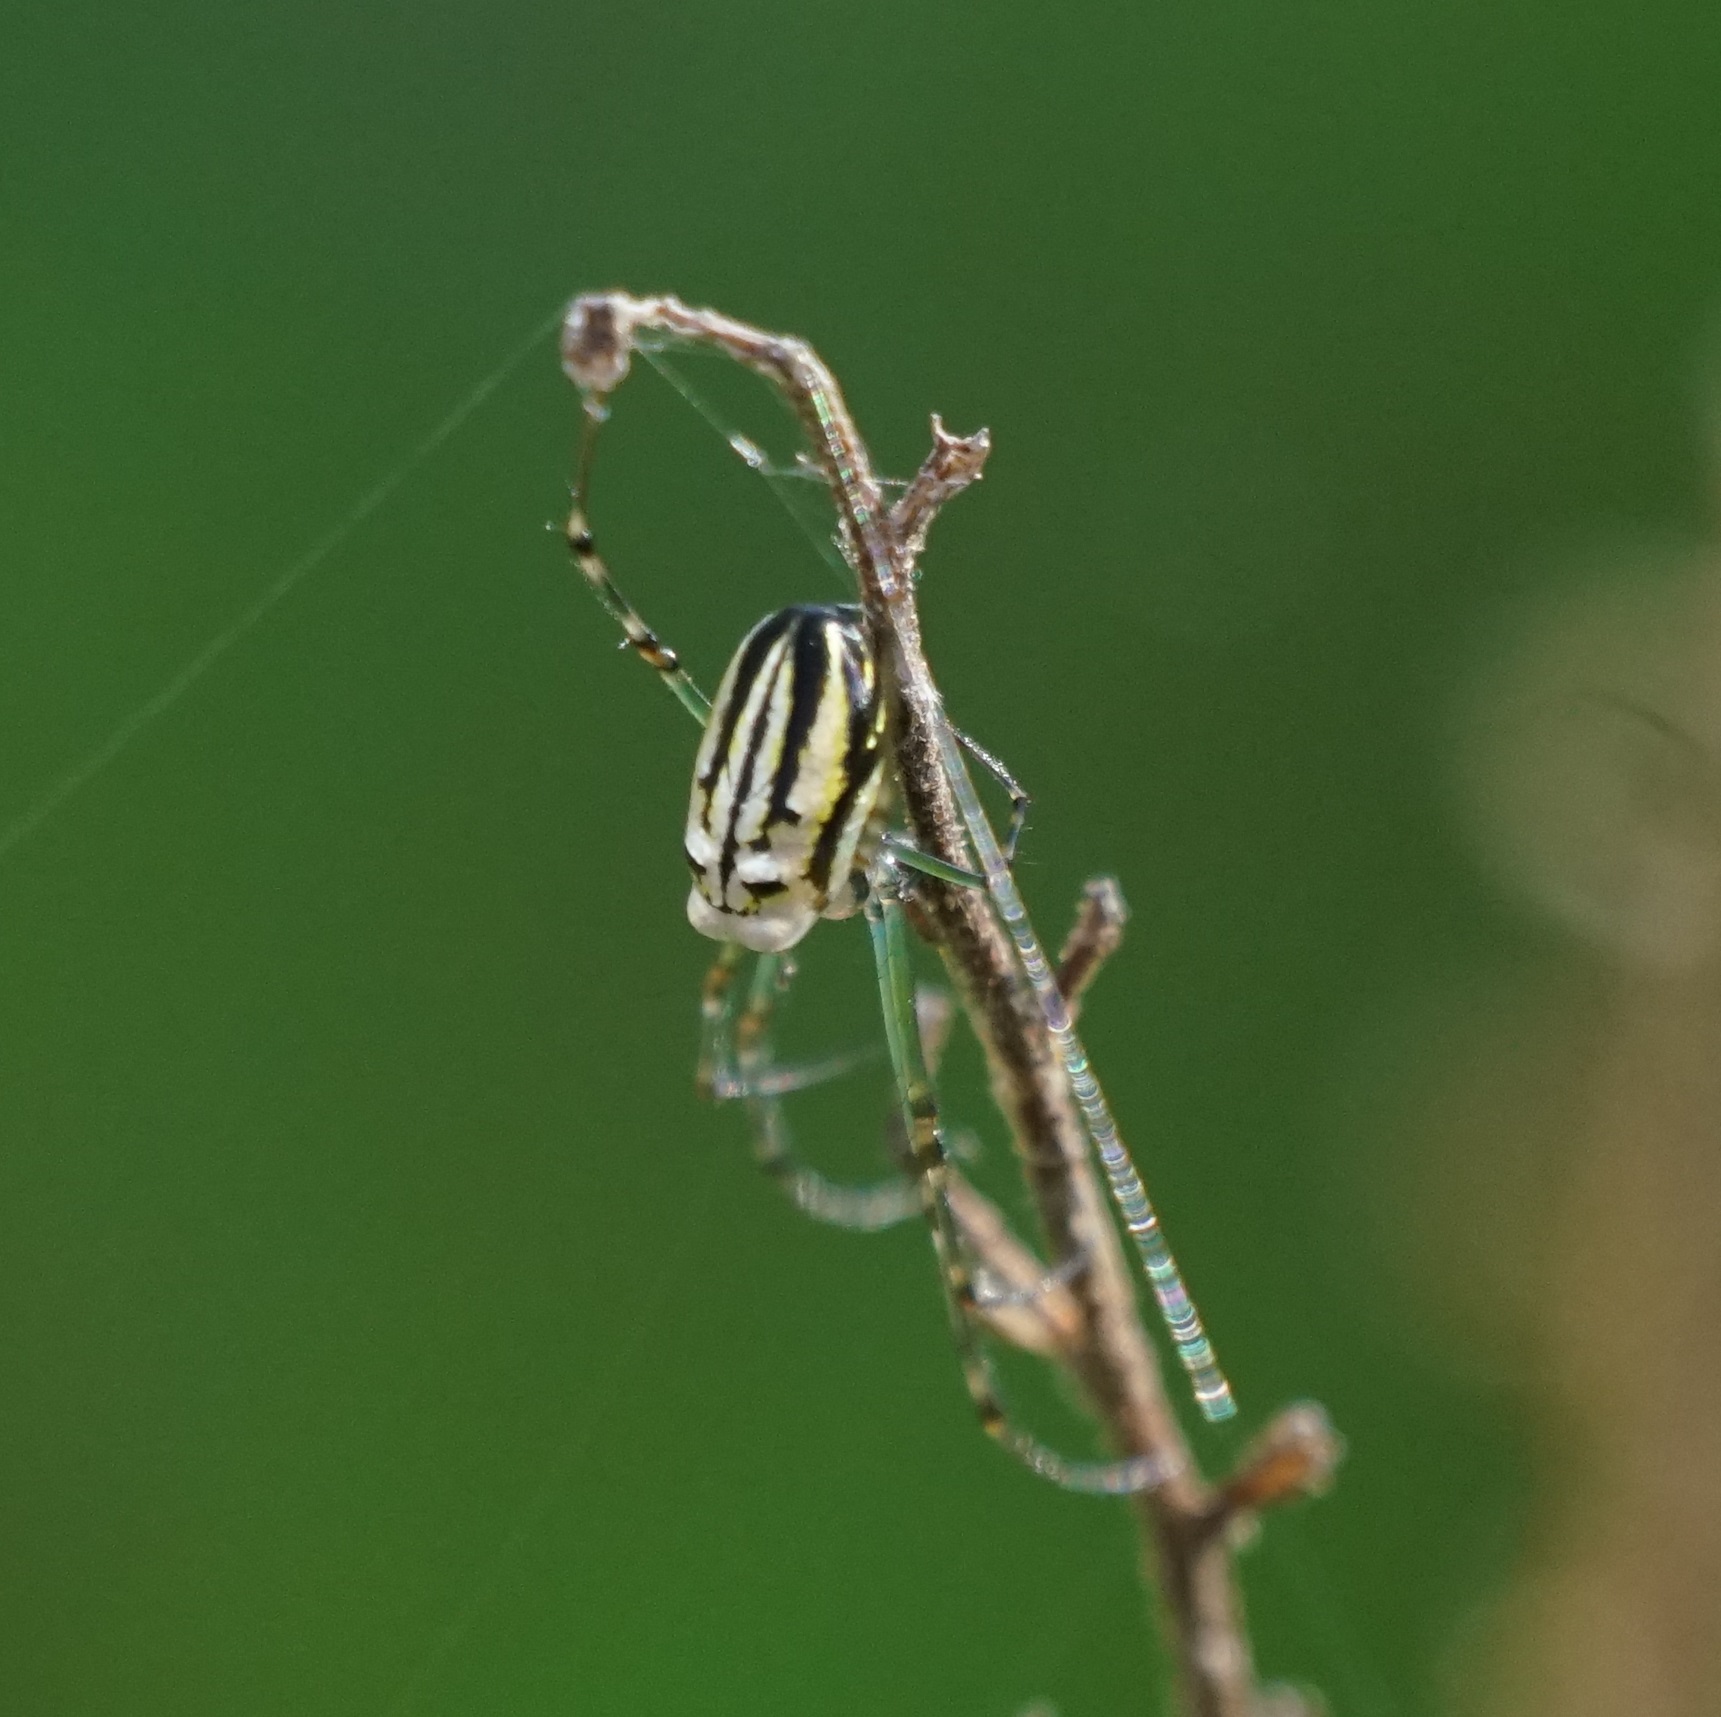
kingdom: Animalia
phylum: Arthropoda
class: Arachnida
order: Araneae
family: Tetragnathidae
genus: Leucauge
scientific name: Leucauge dromedaria
